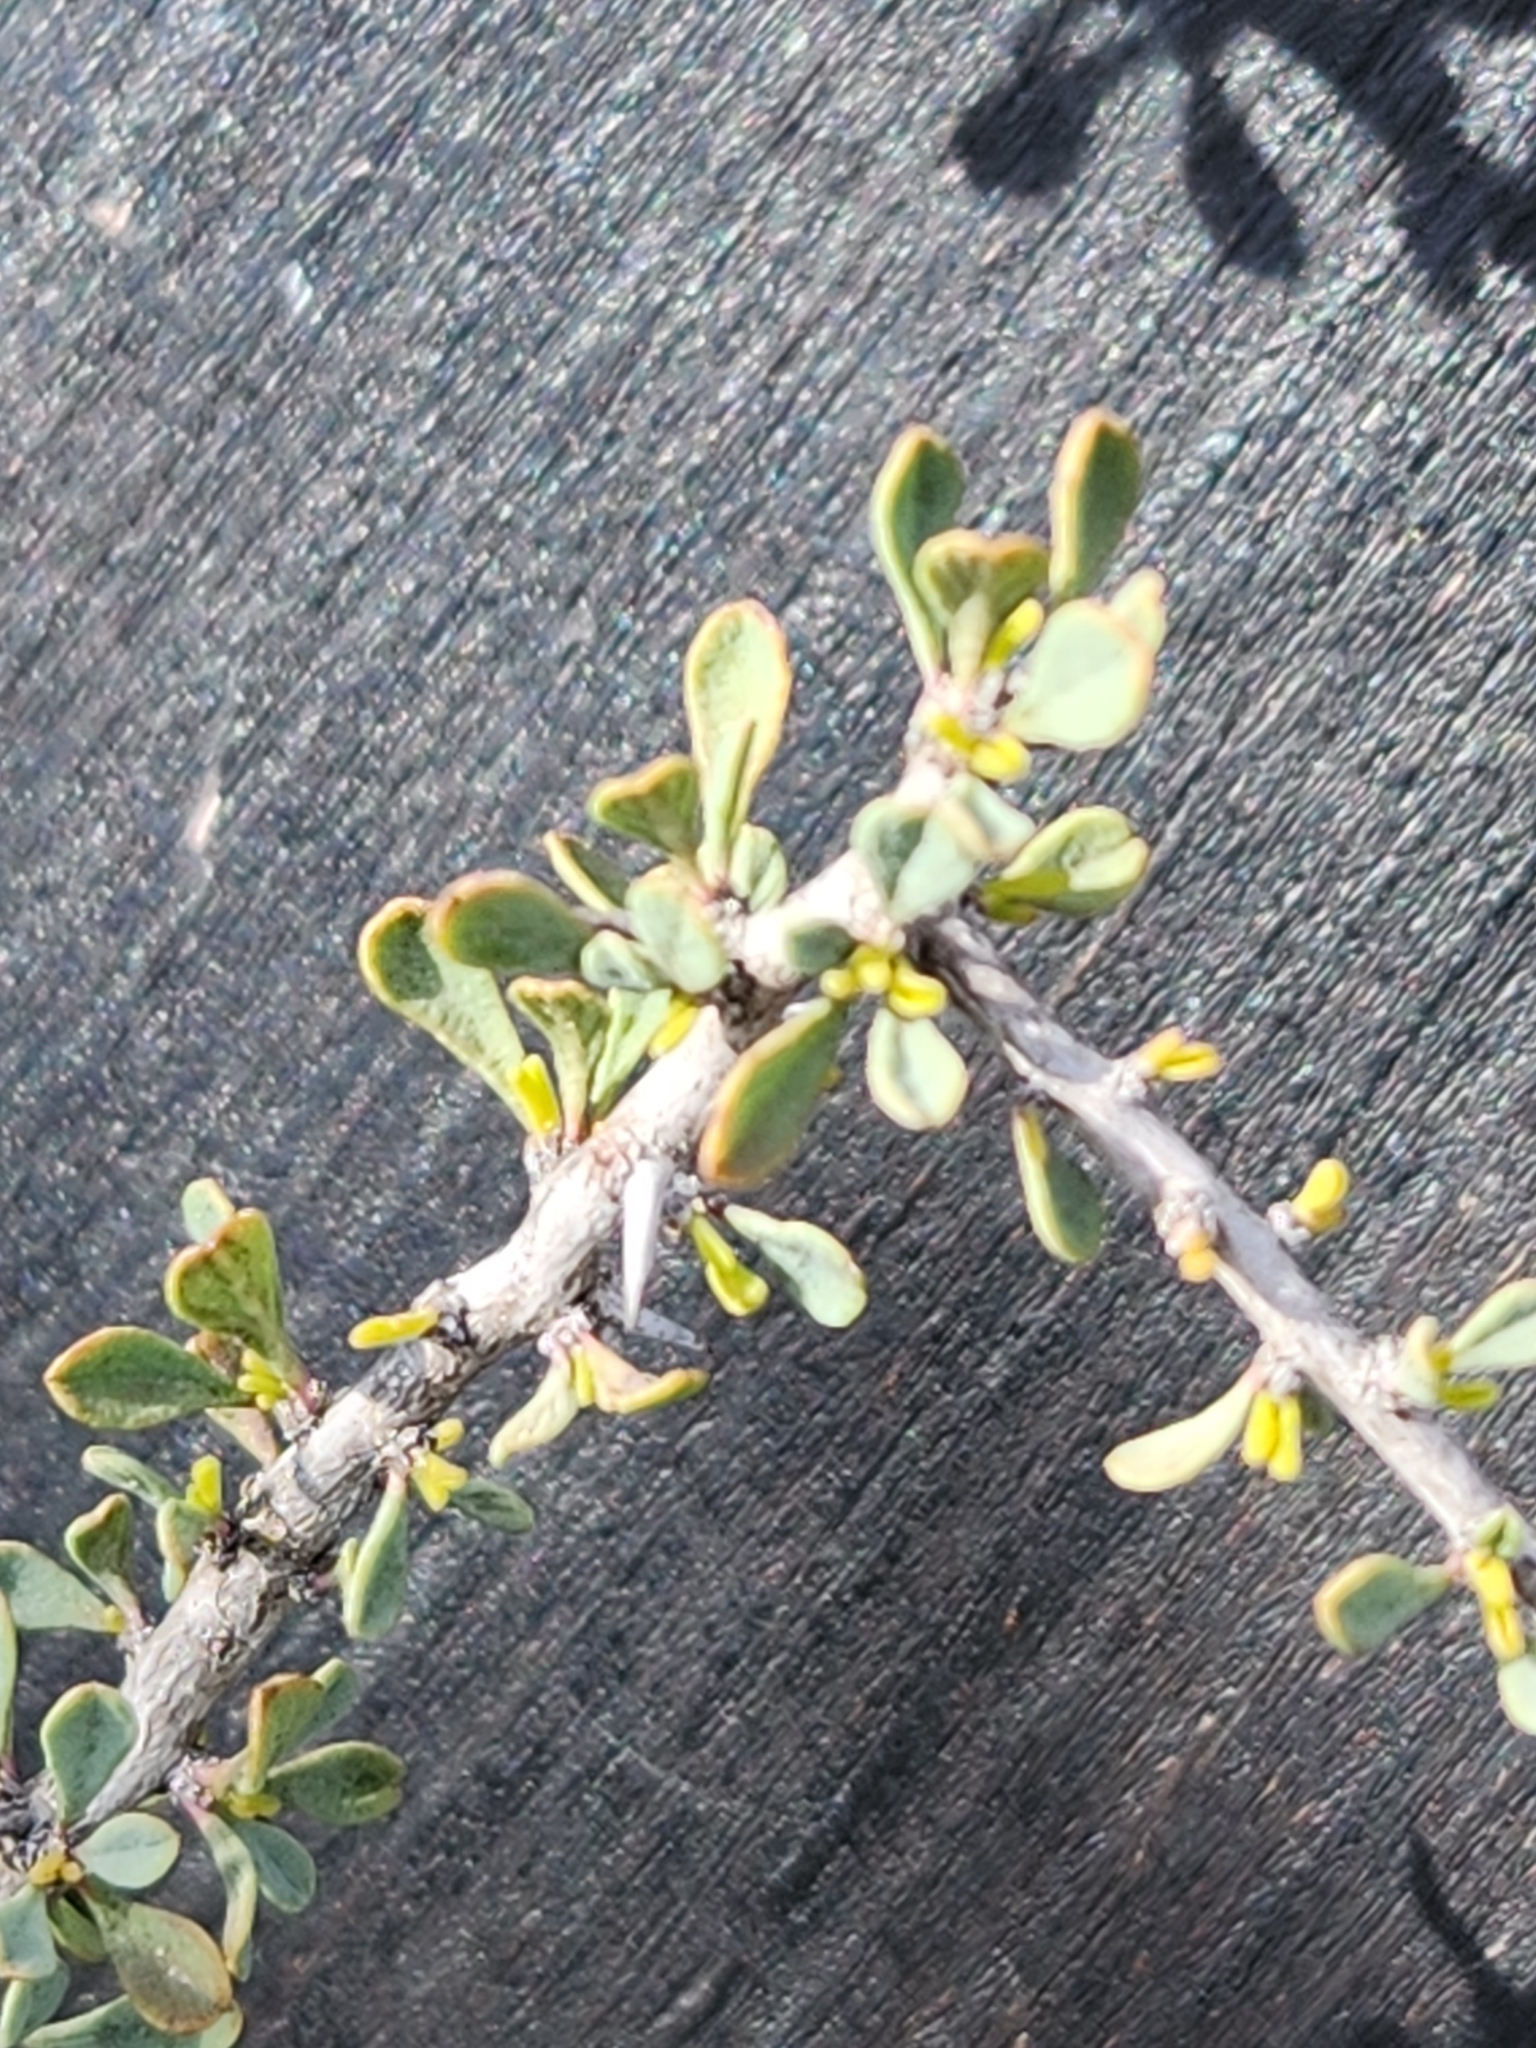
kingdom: Plantae
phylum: Tracheophyta
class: Magnoliopsida
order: Rosales
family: Rhamnaceae
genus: Condalia
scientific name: Condalia spathulata
